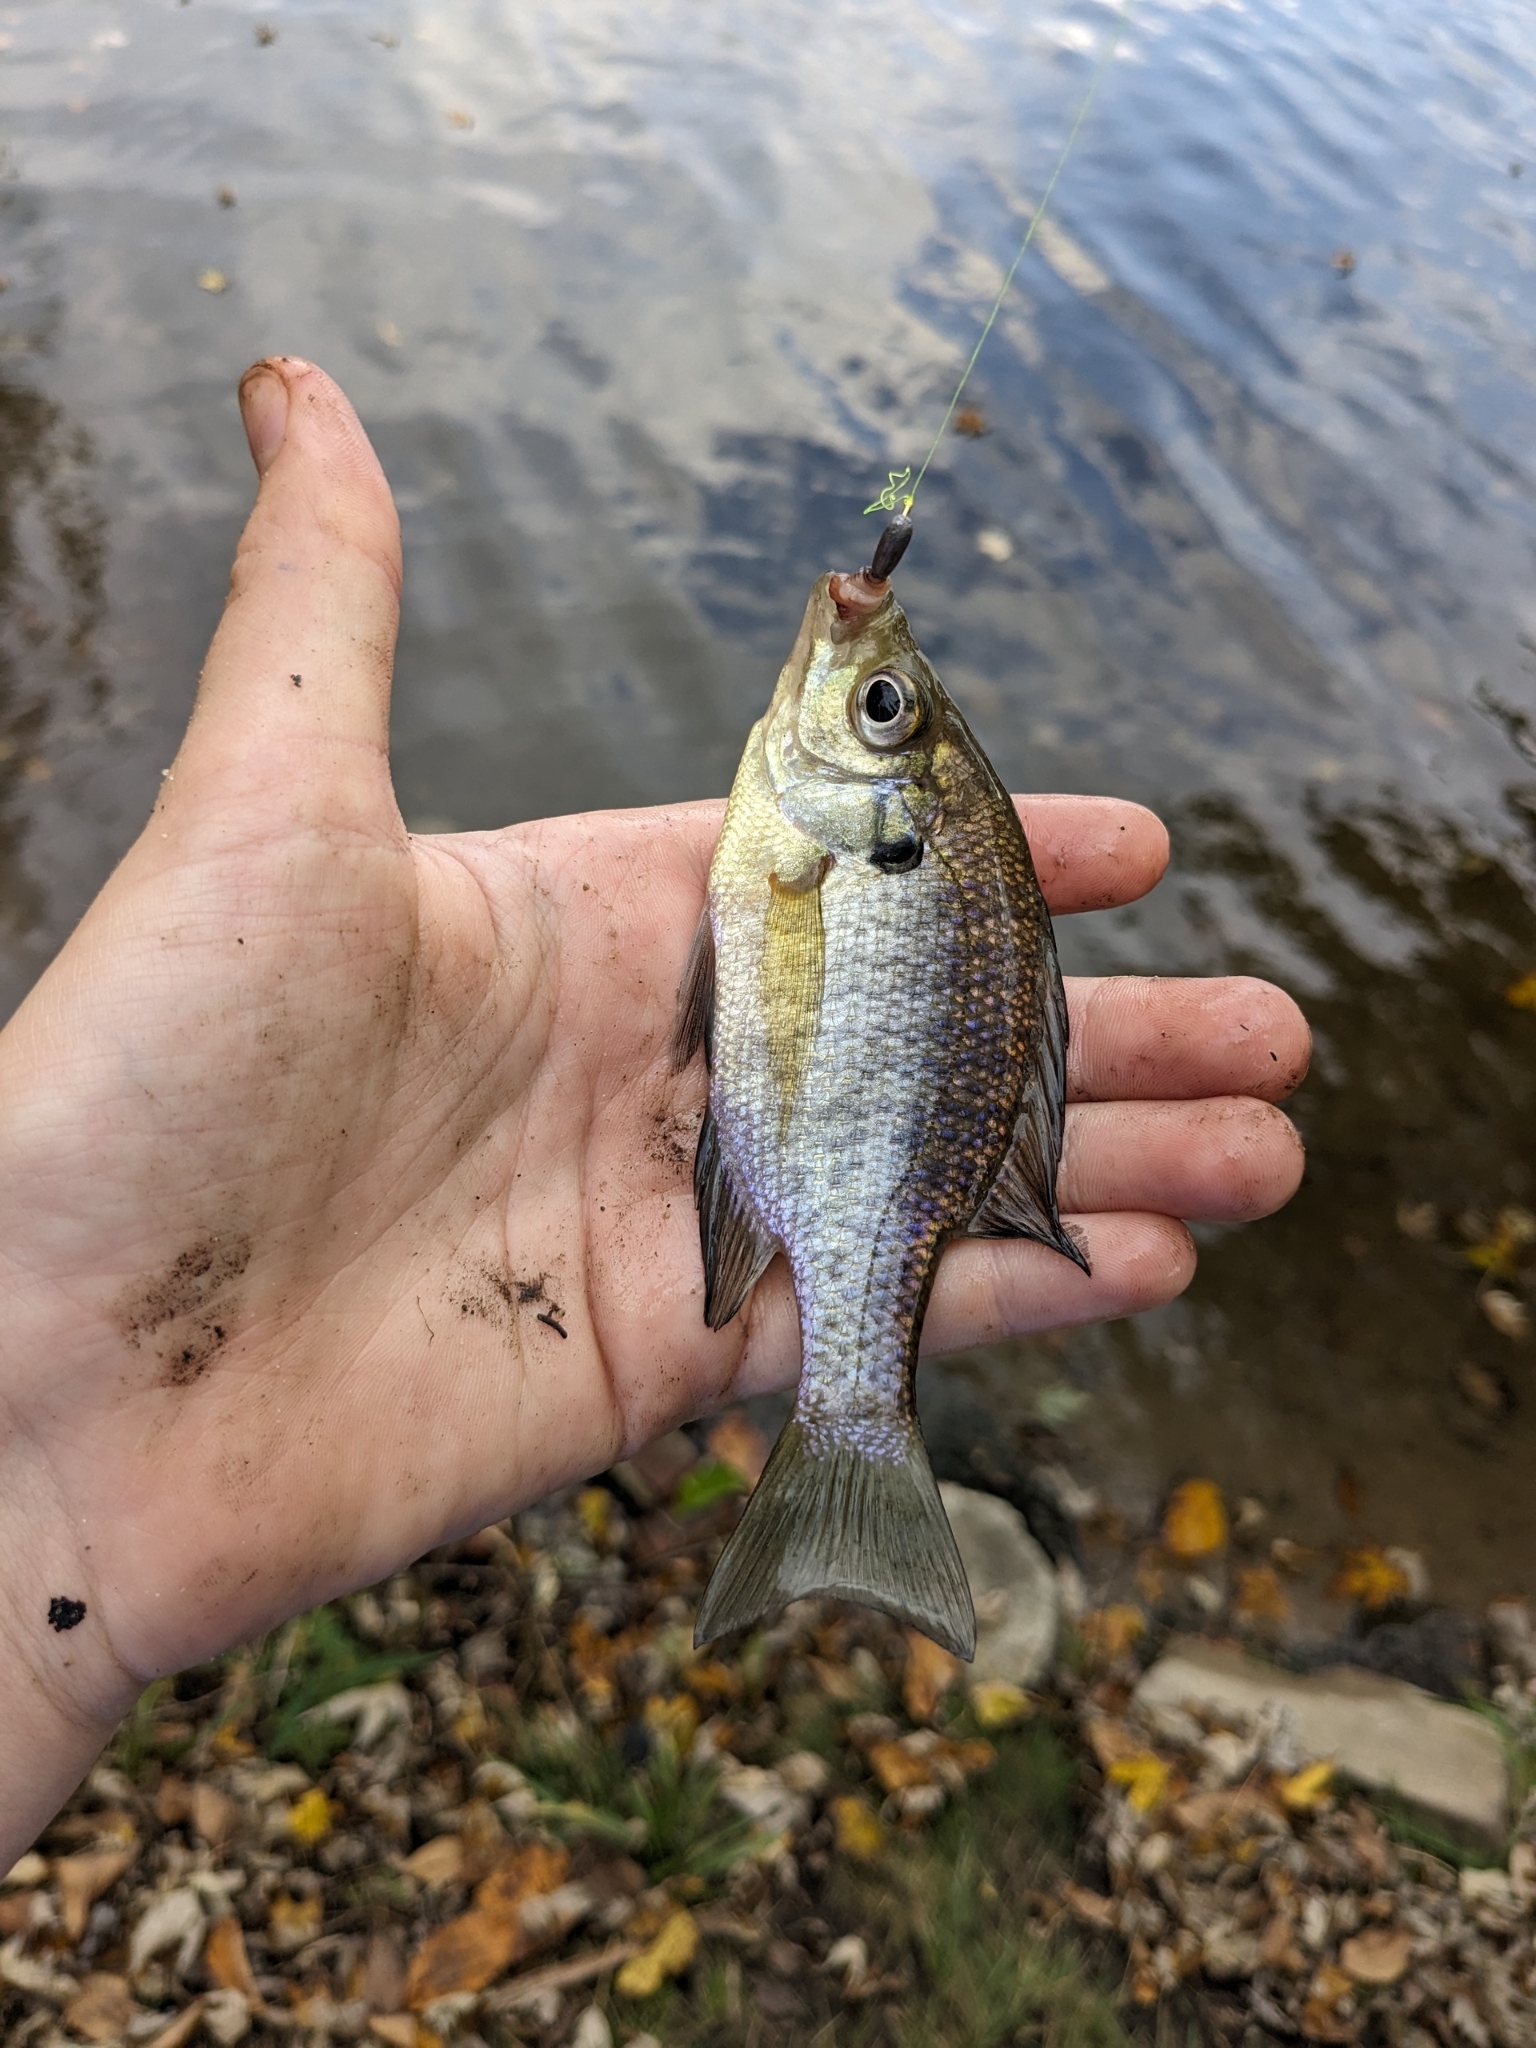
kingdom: Animalia
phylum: Chordata
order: Perciformes
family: Centrarchidae
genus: Lepomis
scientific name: Lepomis macrochirus
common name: Bluegill
